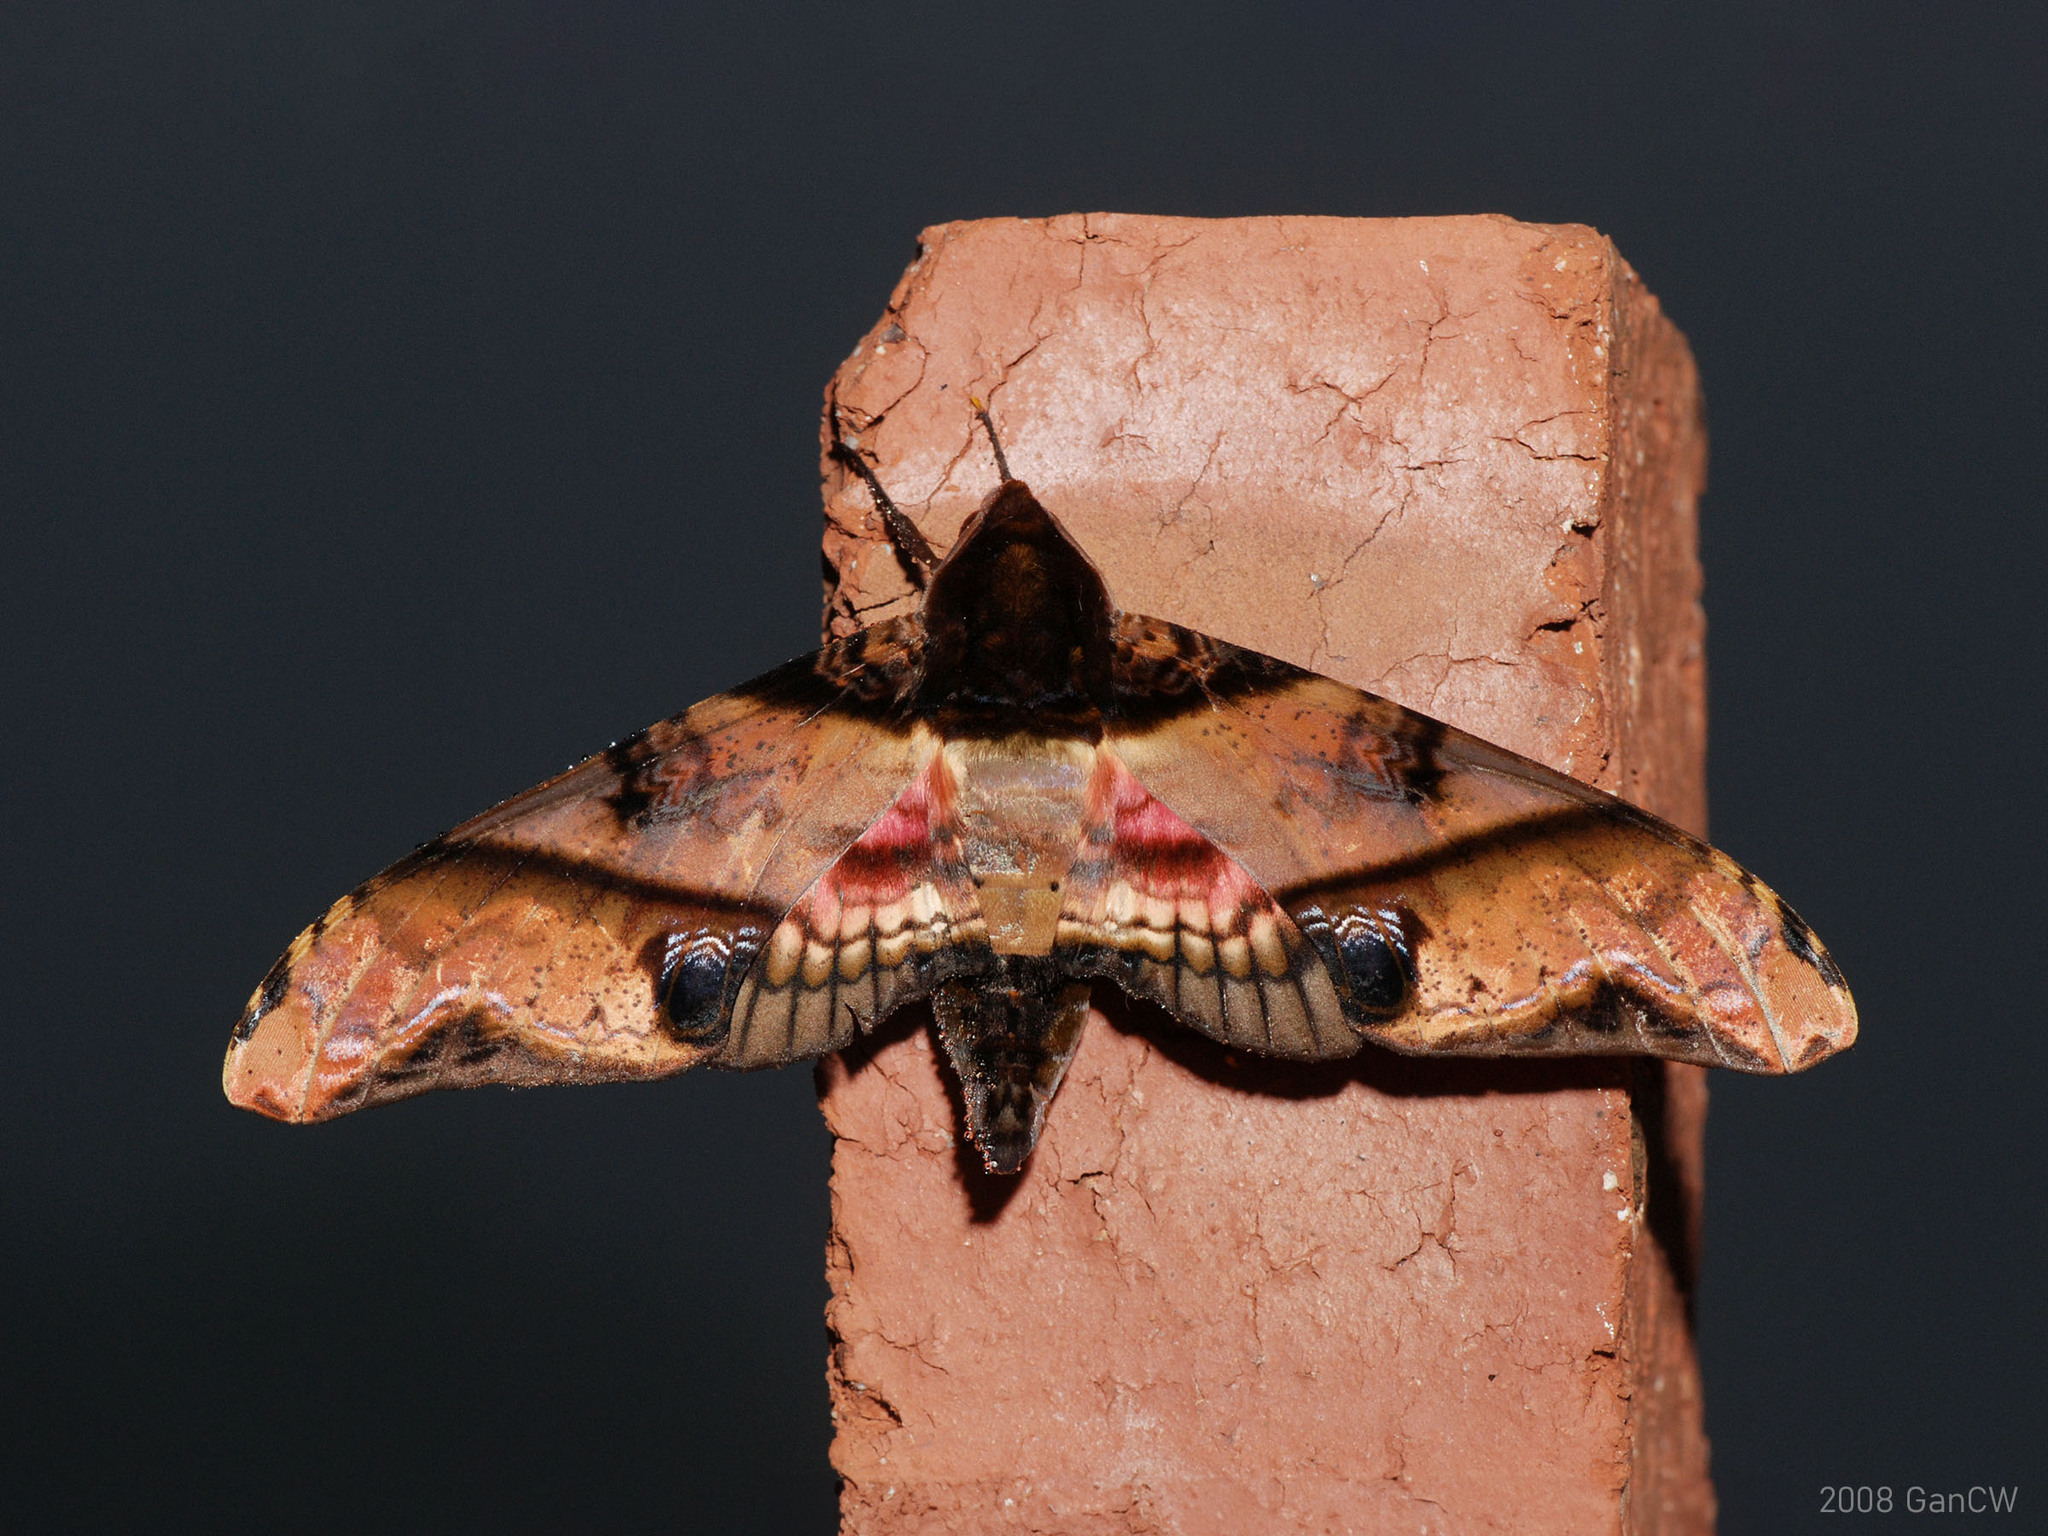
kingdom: Animalia
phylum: Arthropoda
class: Insecta
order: Lepidoptera
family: Sphingidae
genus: Amplypterus
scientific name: Amplypterus panopus
